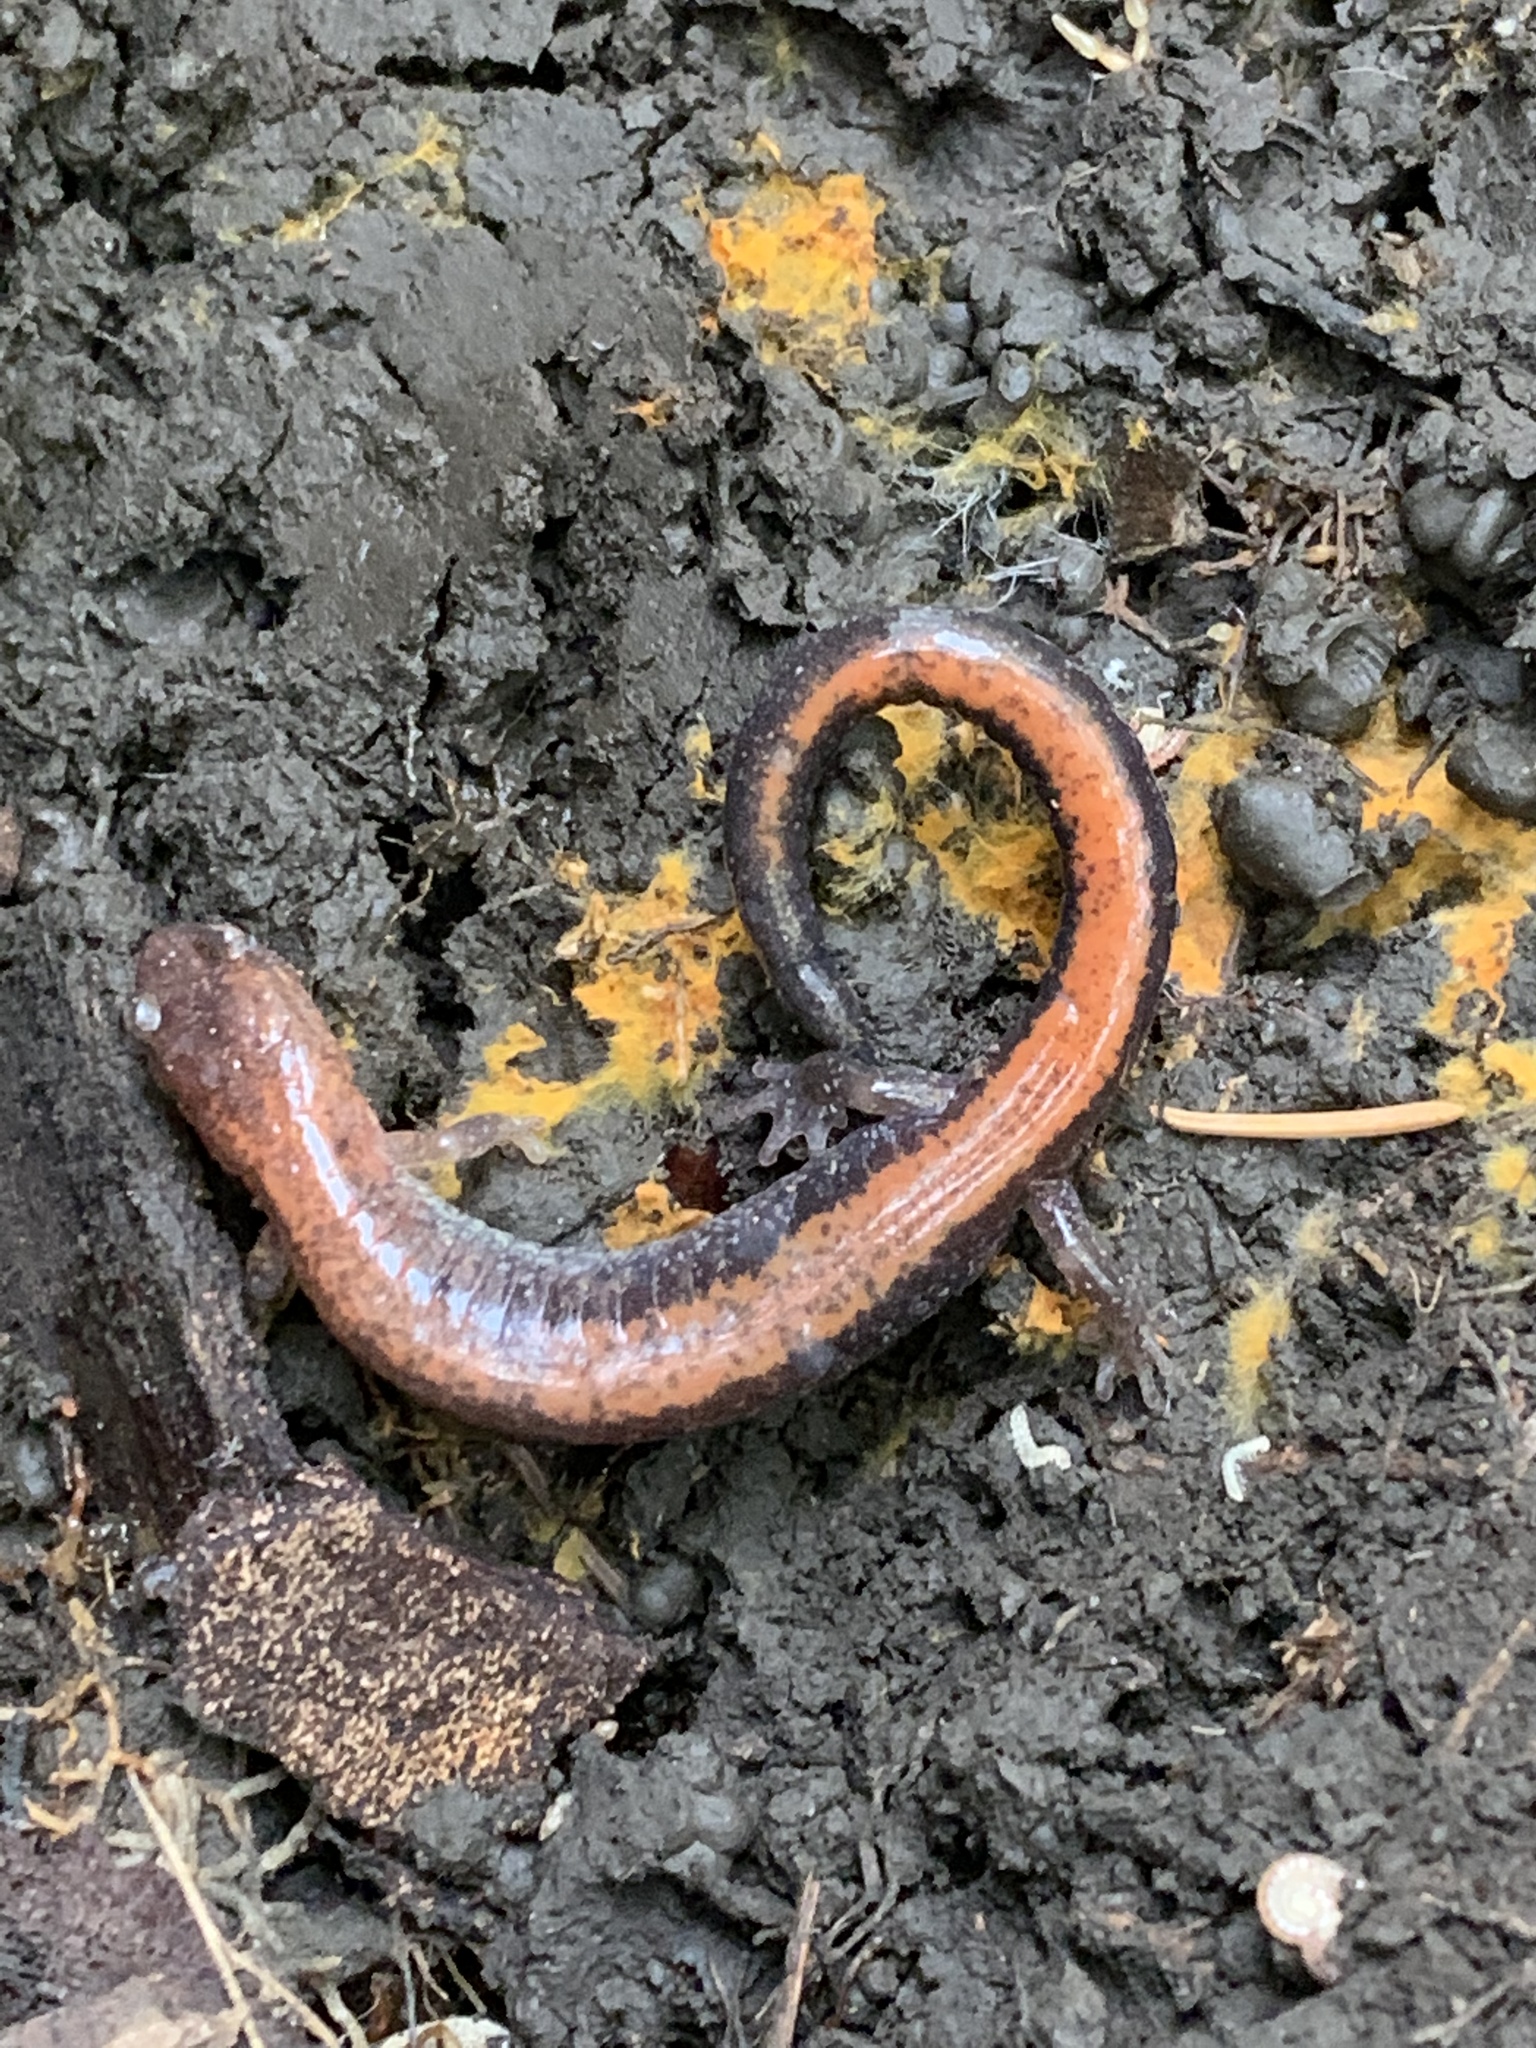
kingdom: Animalia
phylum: Chordata
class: Amphibia
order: Caudata
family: Plethodontidae
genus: Plethodon
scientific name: Plethodon cinereus
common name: Redback salamander
